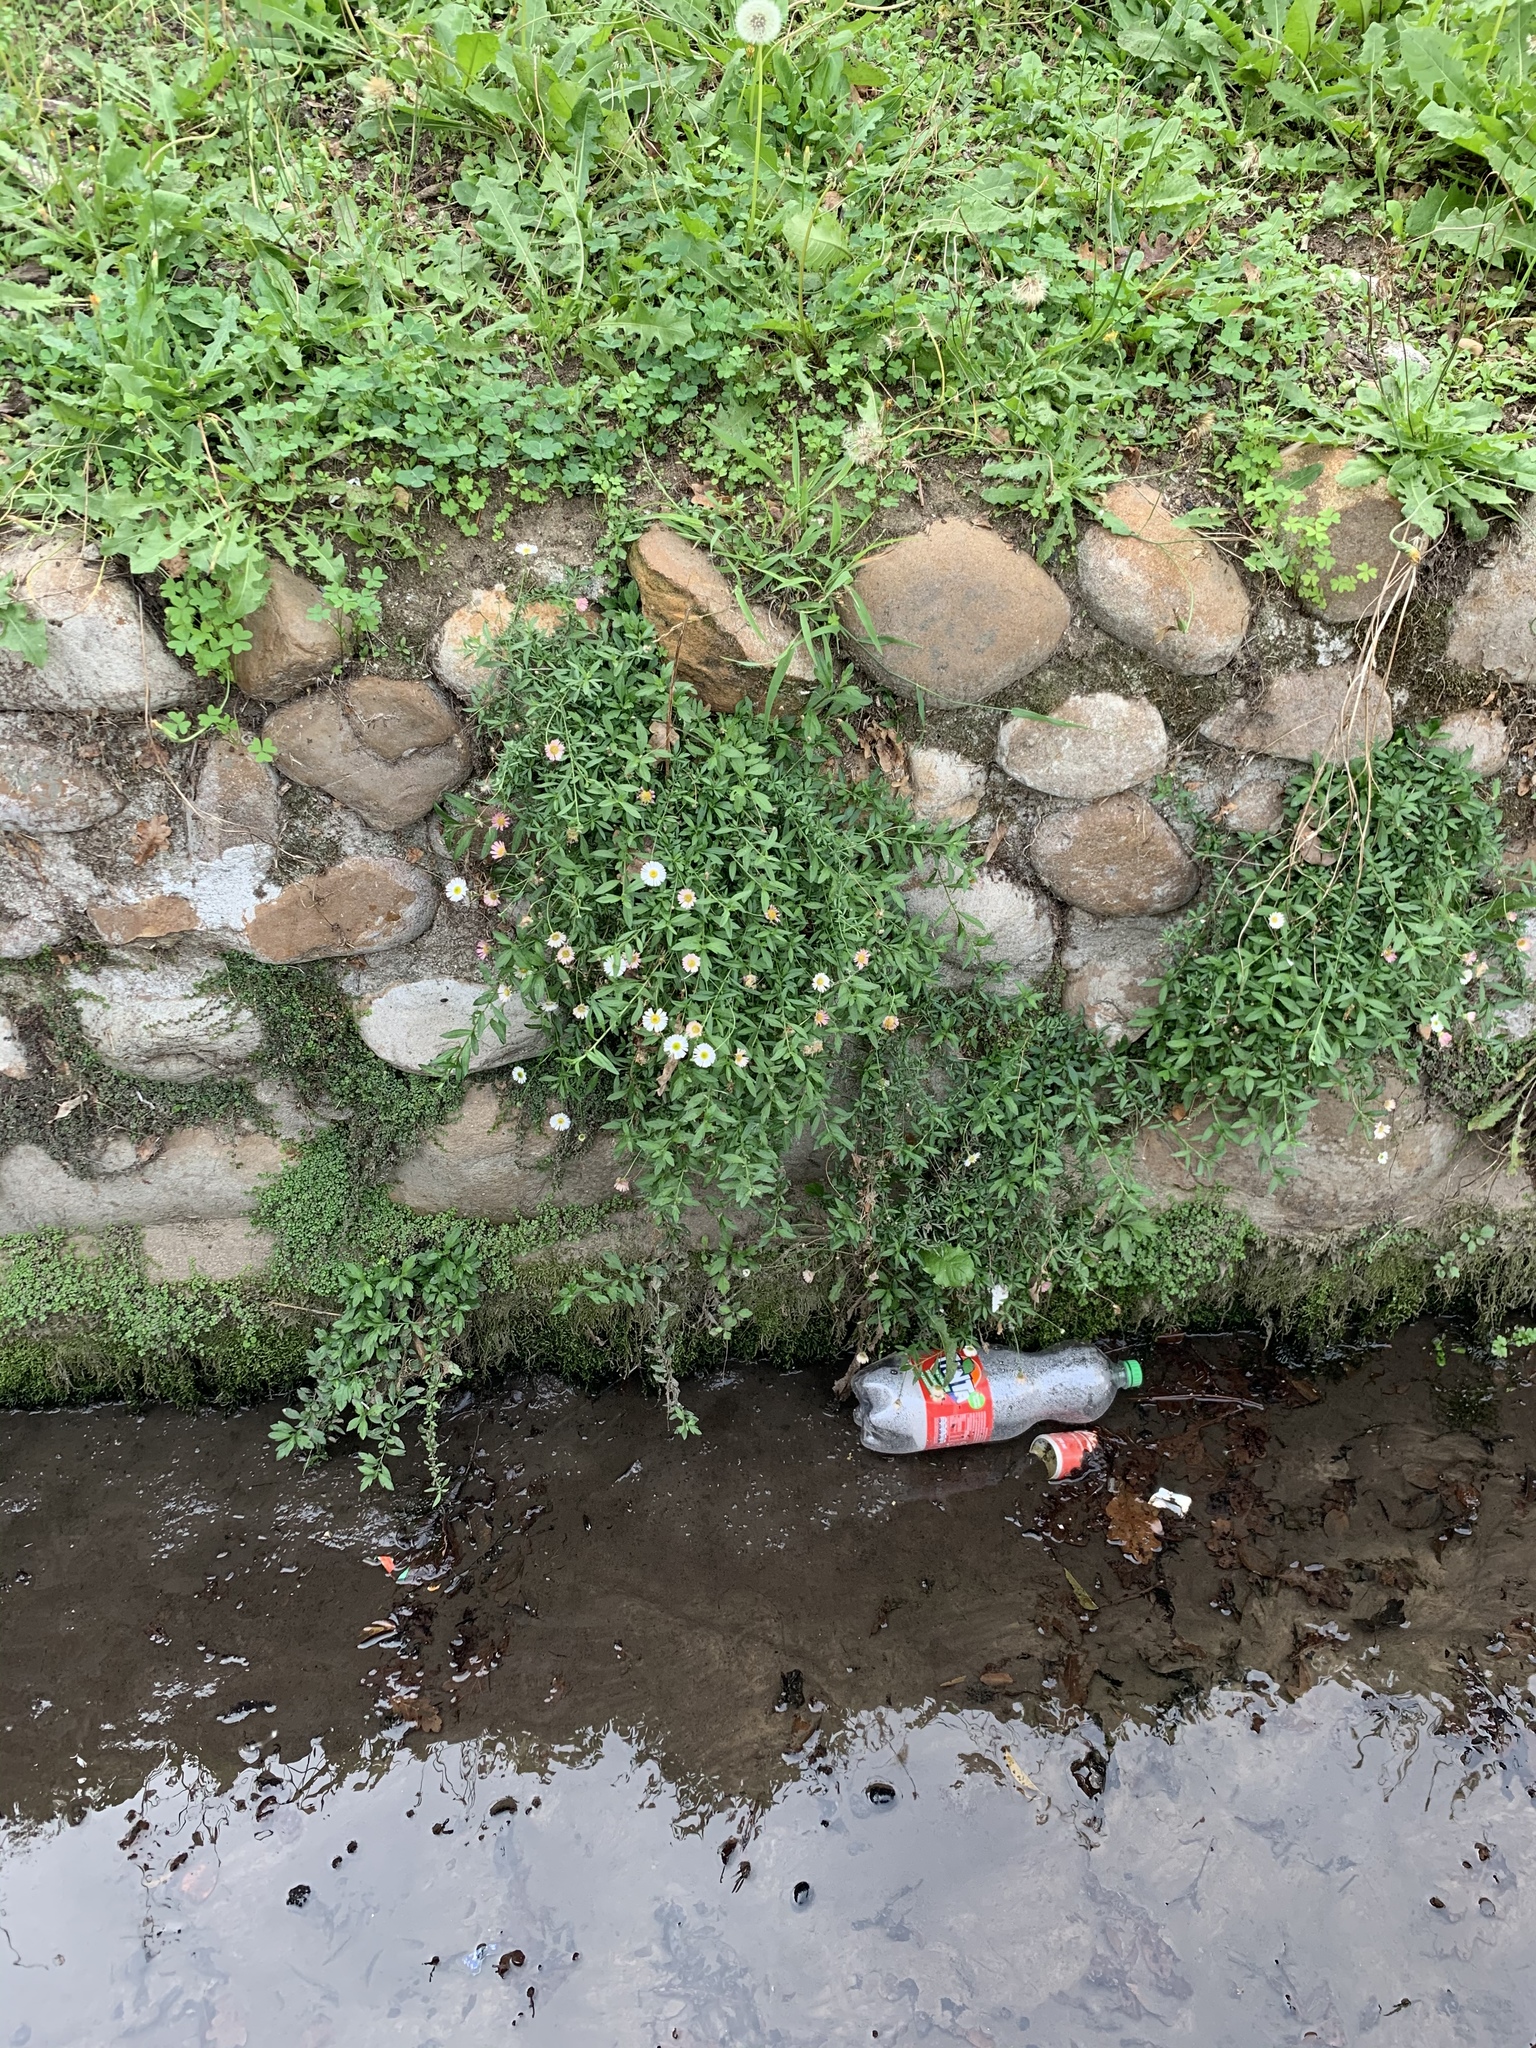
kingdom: Plantae
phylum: Tracheophyta
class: Magnoliopsida
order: Asterales
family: Asteraceae
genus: Erigeron
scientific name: Erigeron karvinskianus
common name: Mexican fleabane
